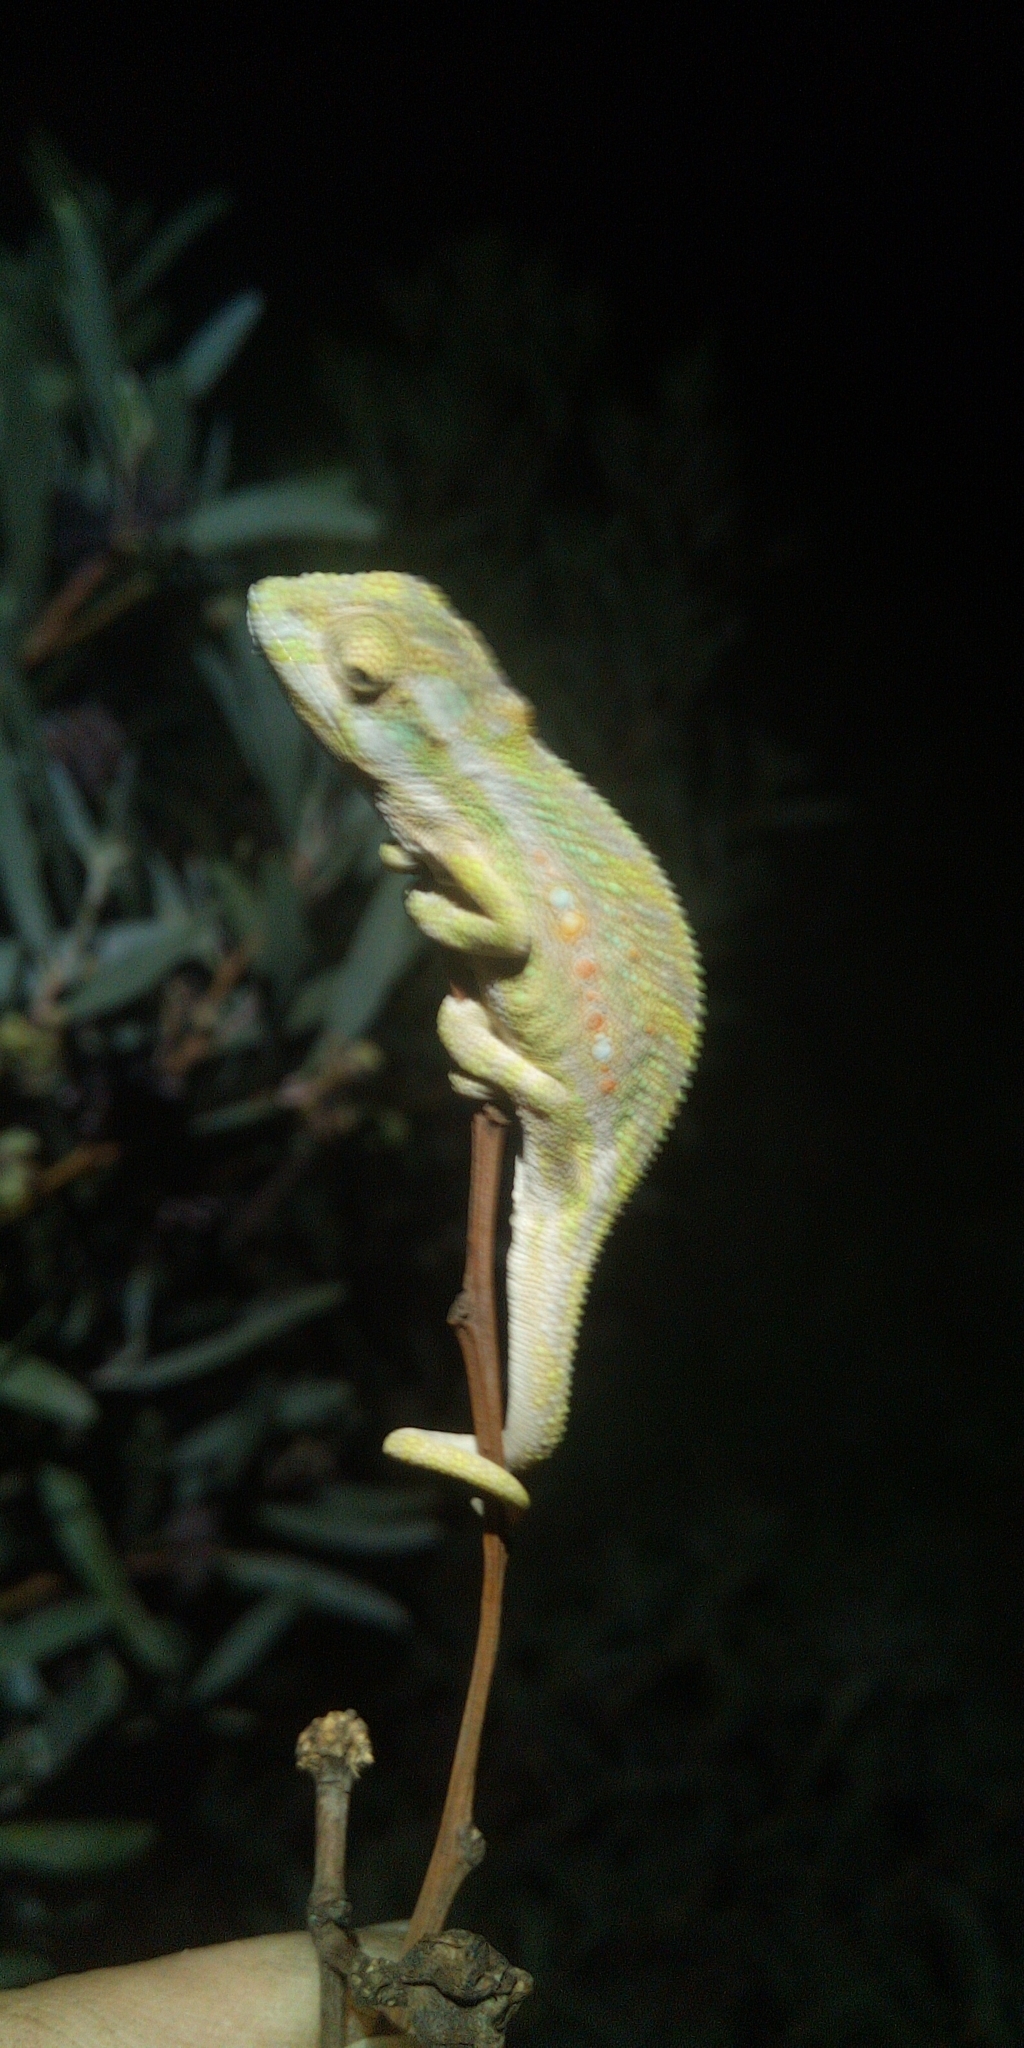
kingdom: Animalia
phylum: Chordata
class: Squamata
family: Chamaeleonidae
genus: Bradypodion
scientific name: Bradypodion pumilum
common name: Cape dwarf chameleon
